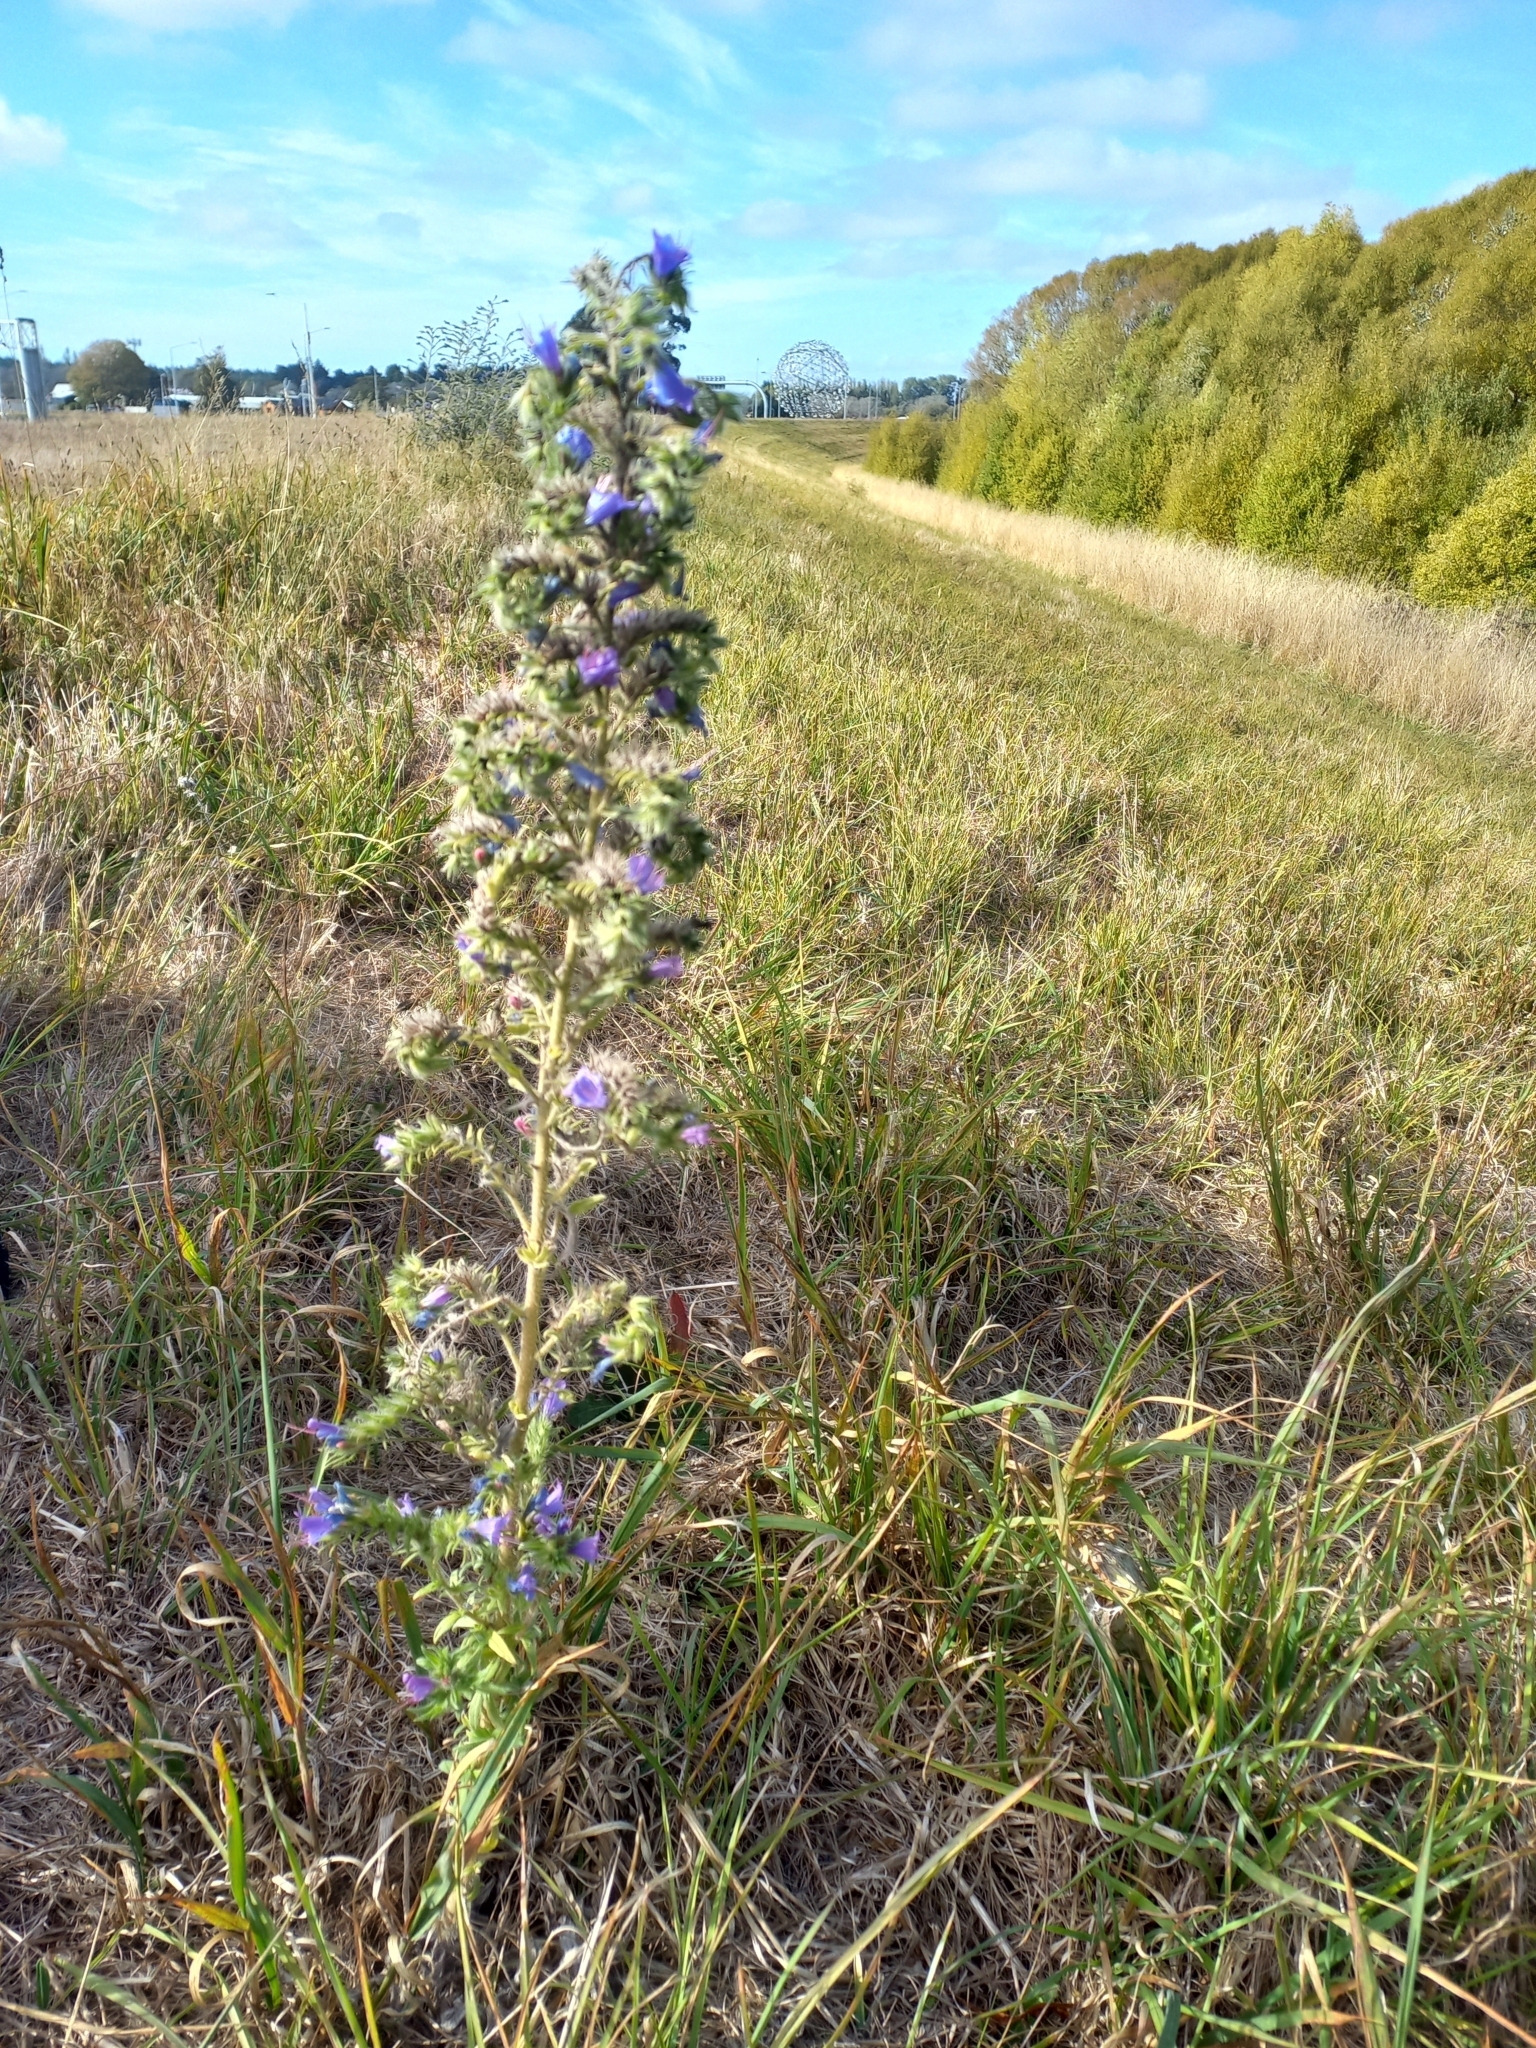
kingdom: Plantae
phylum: Tracheophyta
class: Magnoliopsida
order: Boraginales
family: Boraginaceae
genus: Echium
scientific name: Echium vulgare
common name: Common viper's bugloss
